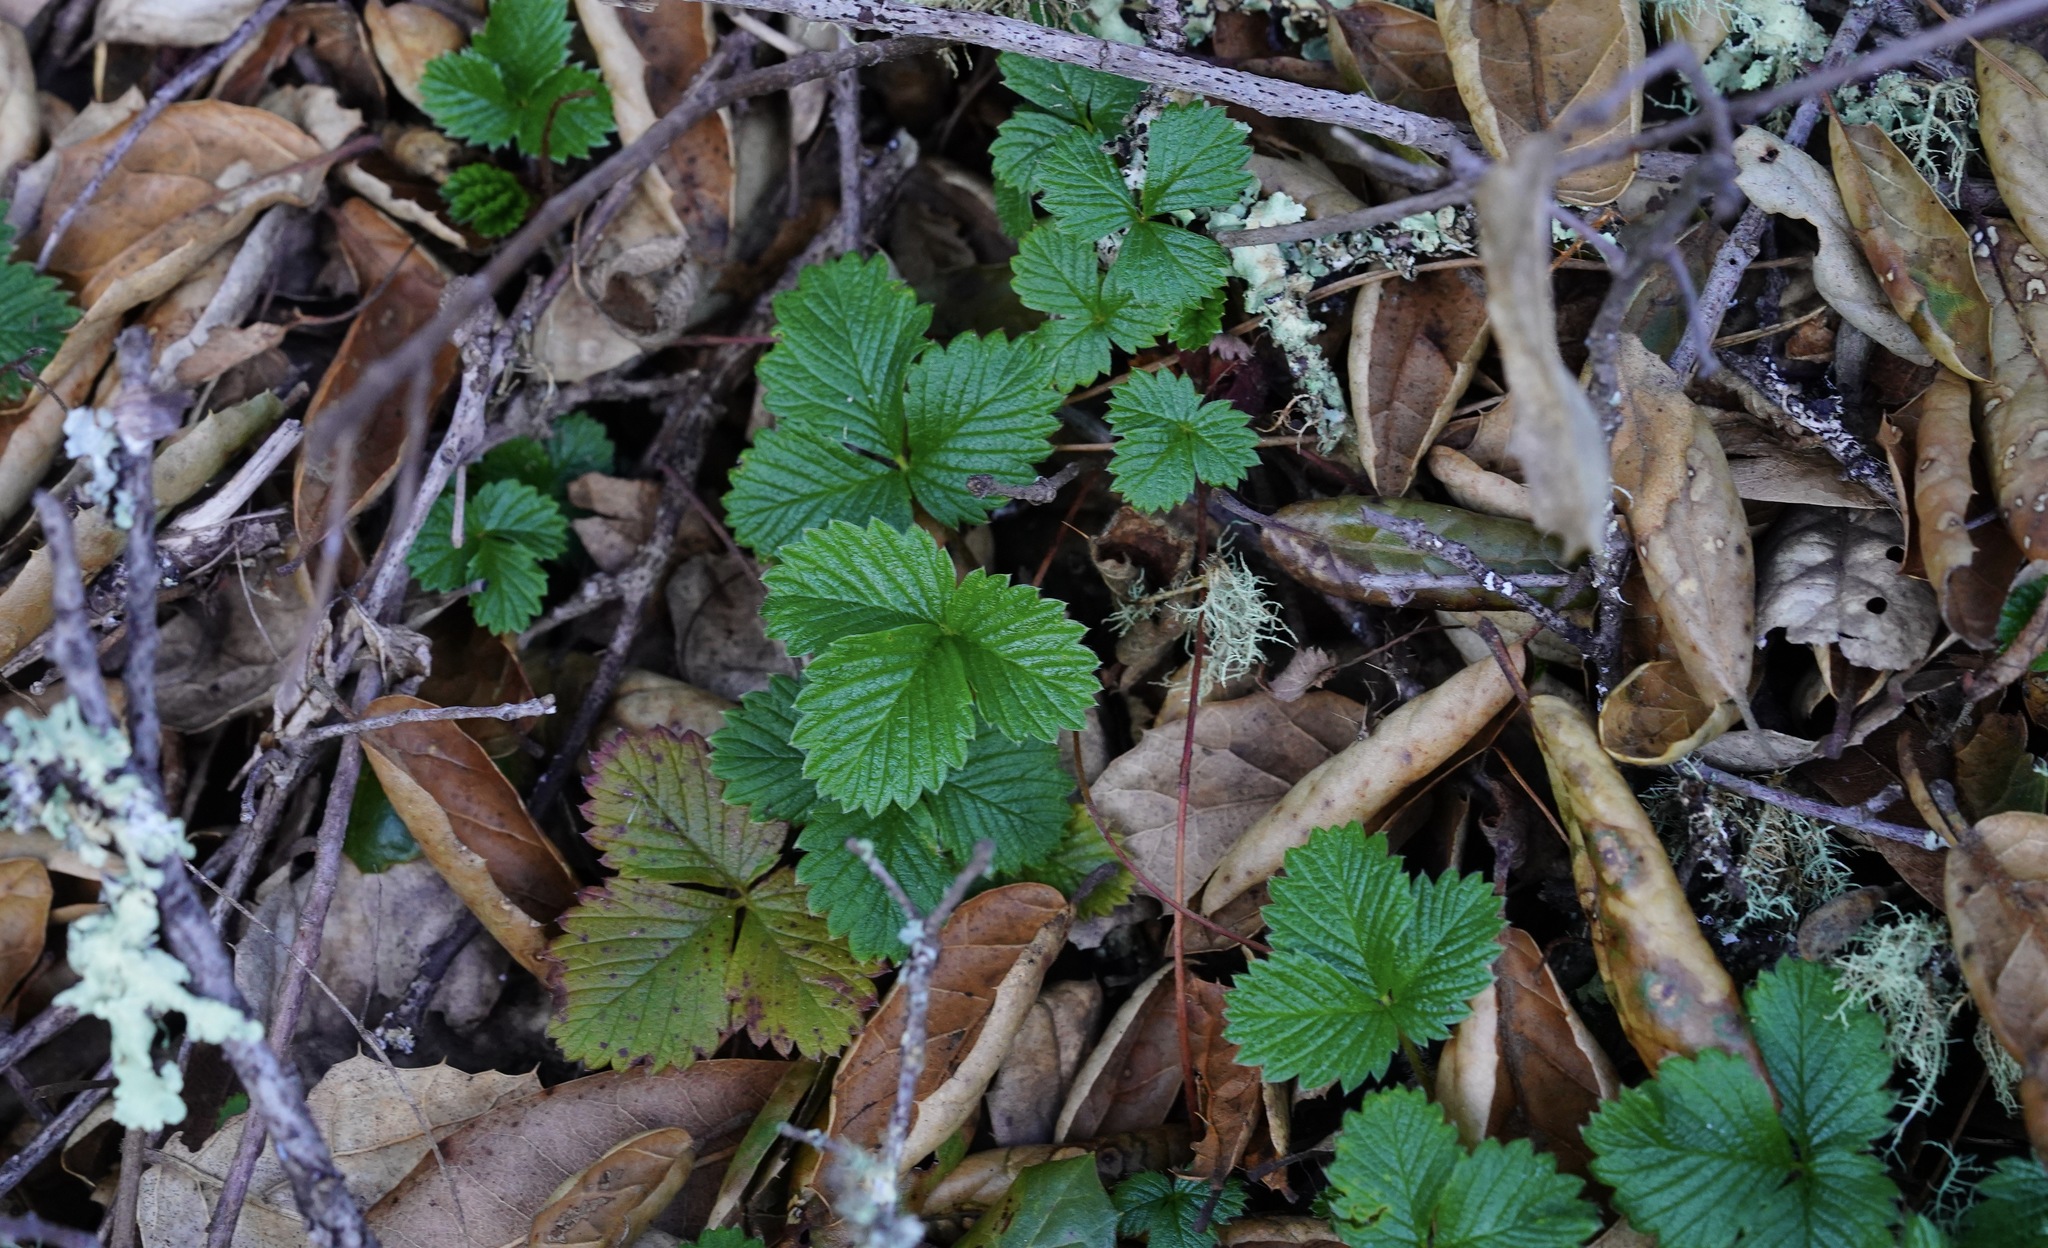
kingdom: Plantae
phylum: Tracheophyta
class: Magnoliopsida
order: Rosales
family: Rosaceae
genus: Fragaria
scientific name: Fragaria vesca
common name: Wild strawberry
